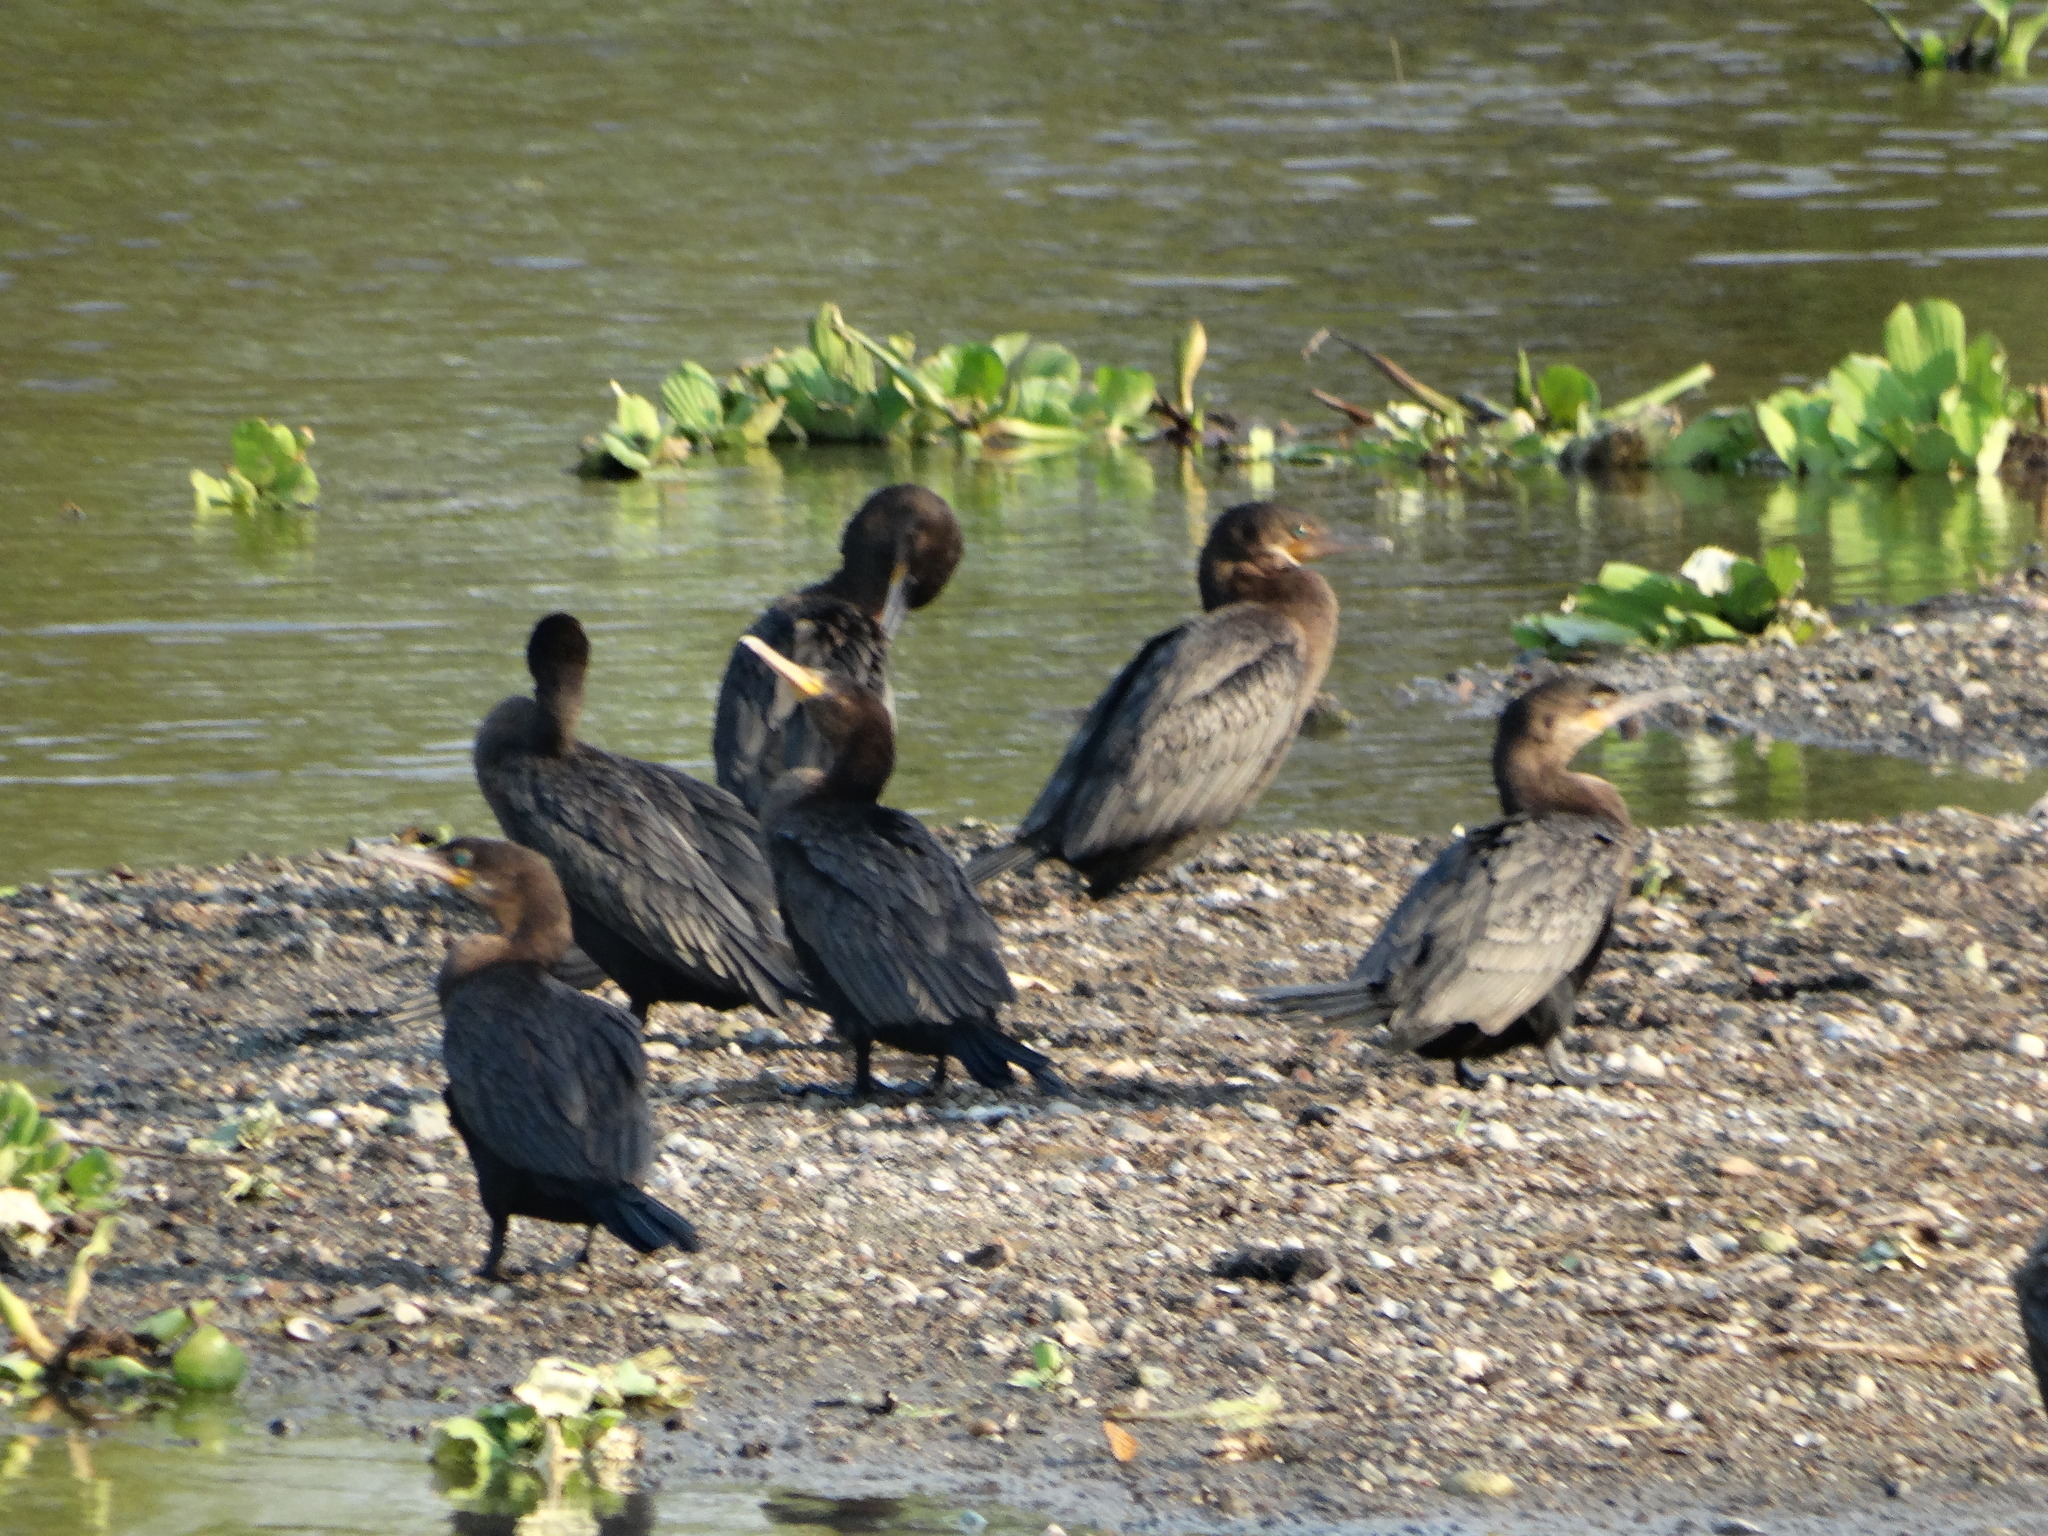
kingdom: Animalia
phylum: Chordata
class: Aves
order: Suliformes
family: Phalacrocoracidae
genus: Phalacrocorax
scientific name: Phalacrocorax brasilianus
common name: Neotropic cormorant
